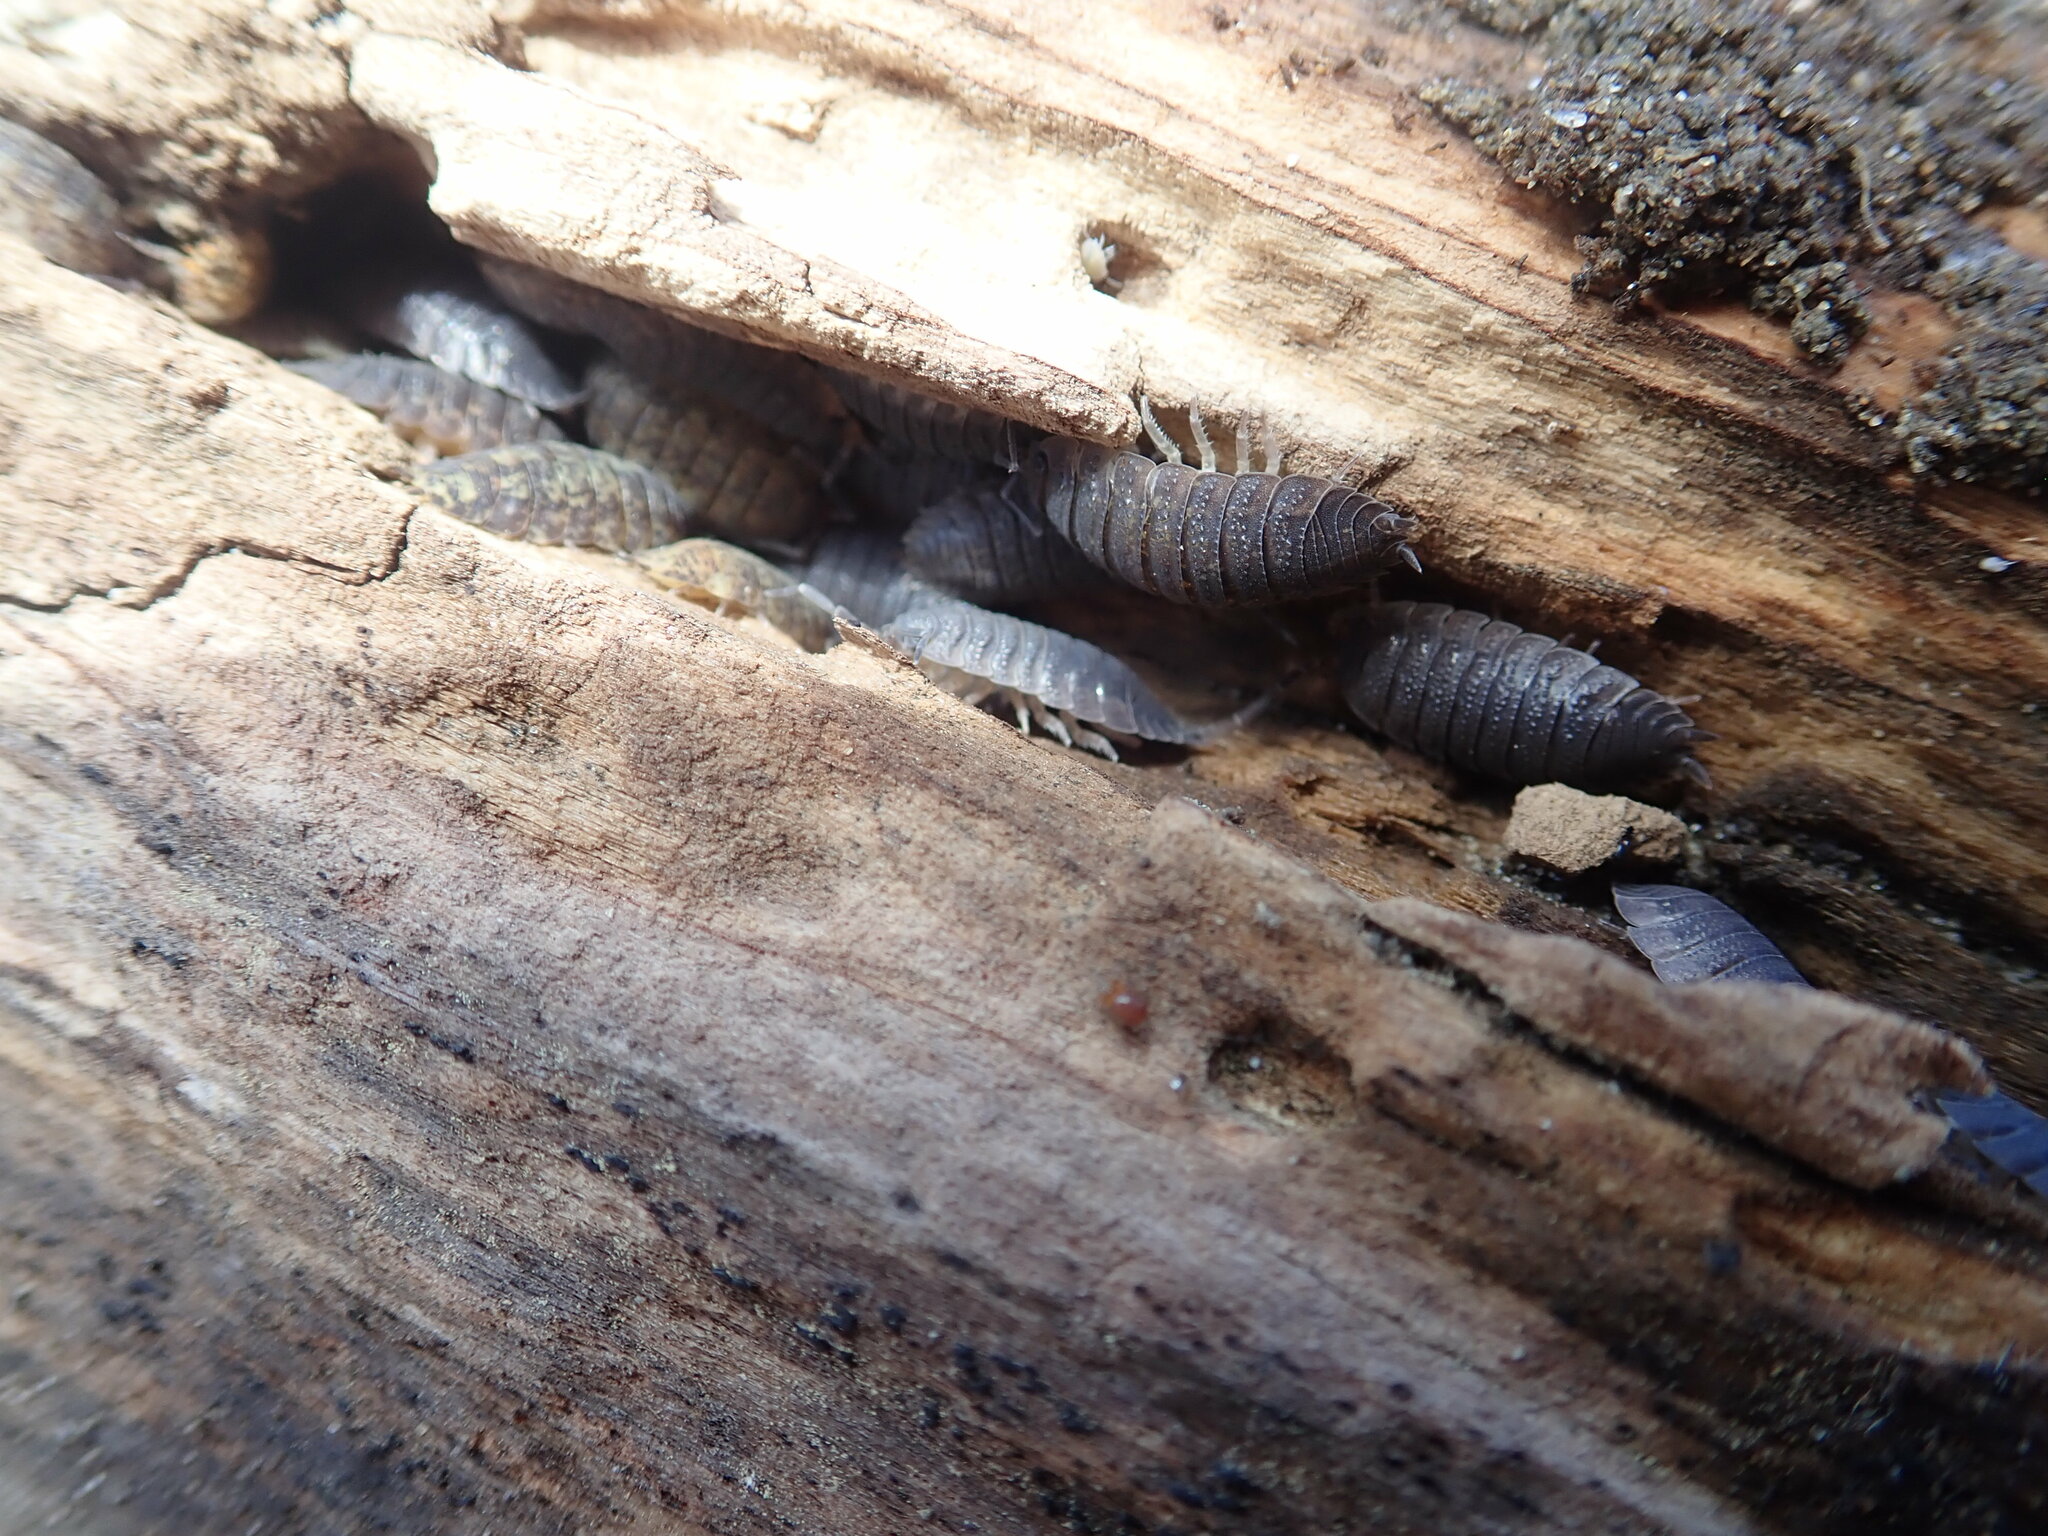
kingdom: Animalia
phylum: Arthropoda
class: Malacostraca
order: Isopoda
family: Porcellionidae
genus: Porcellio
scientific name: Porcellio scaber
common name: Common rough woodlouse
